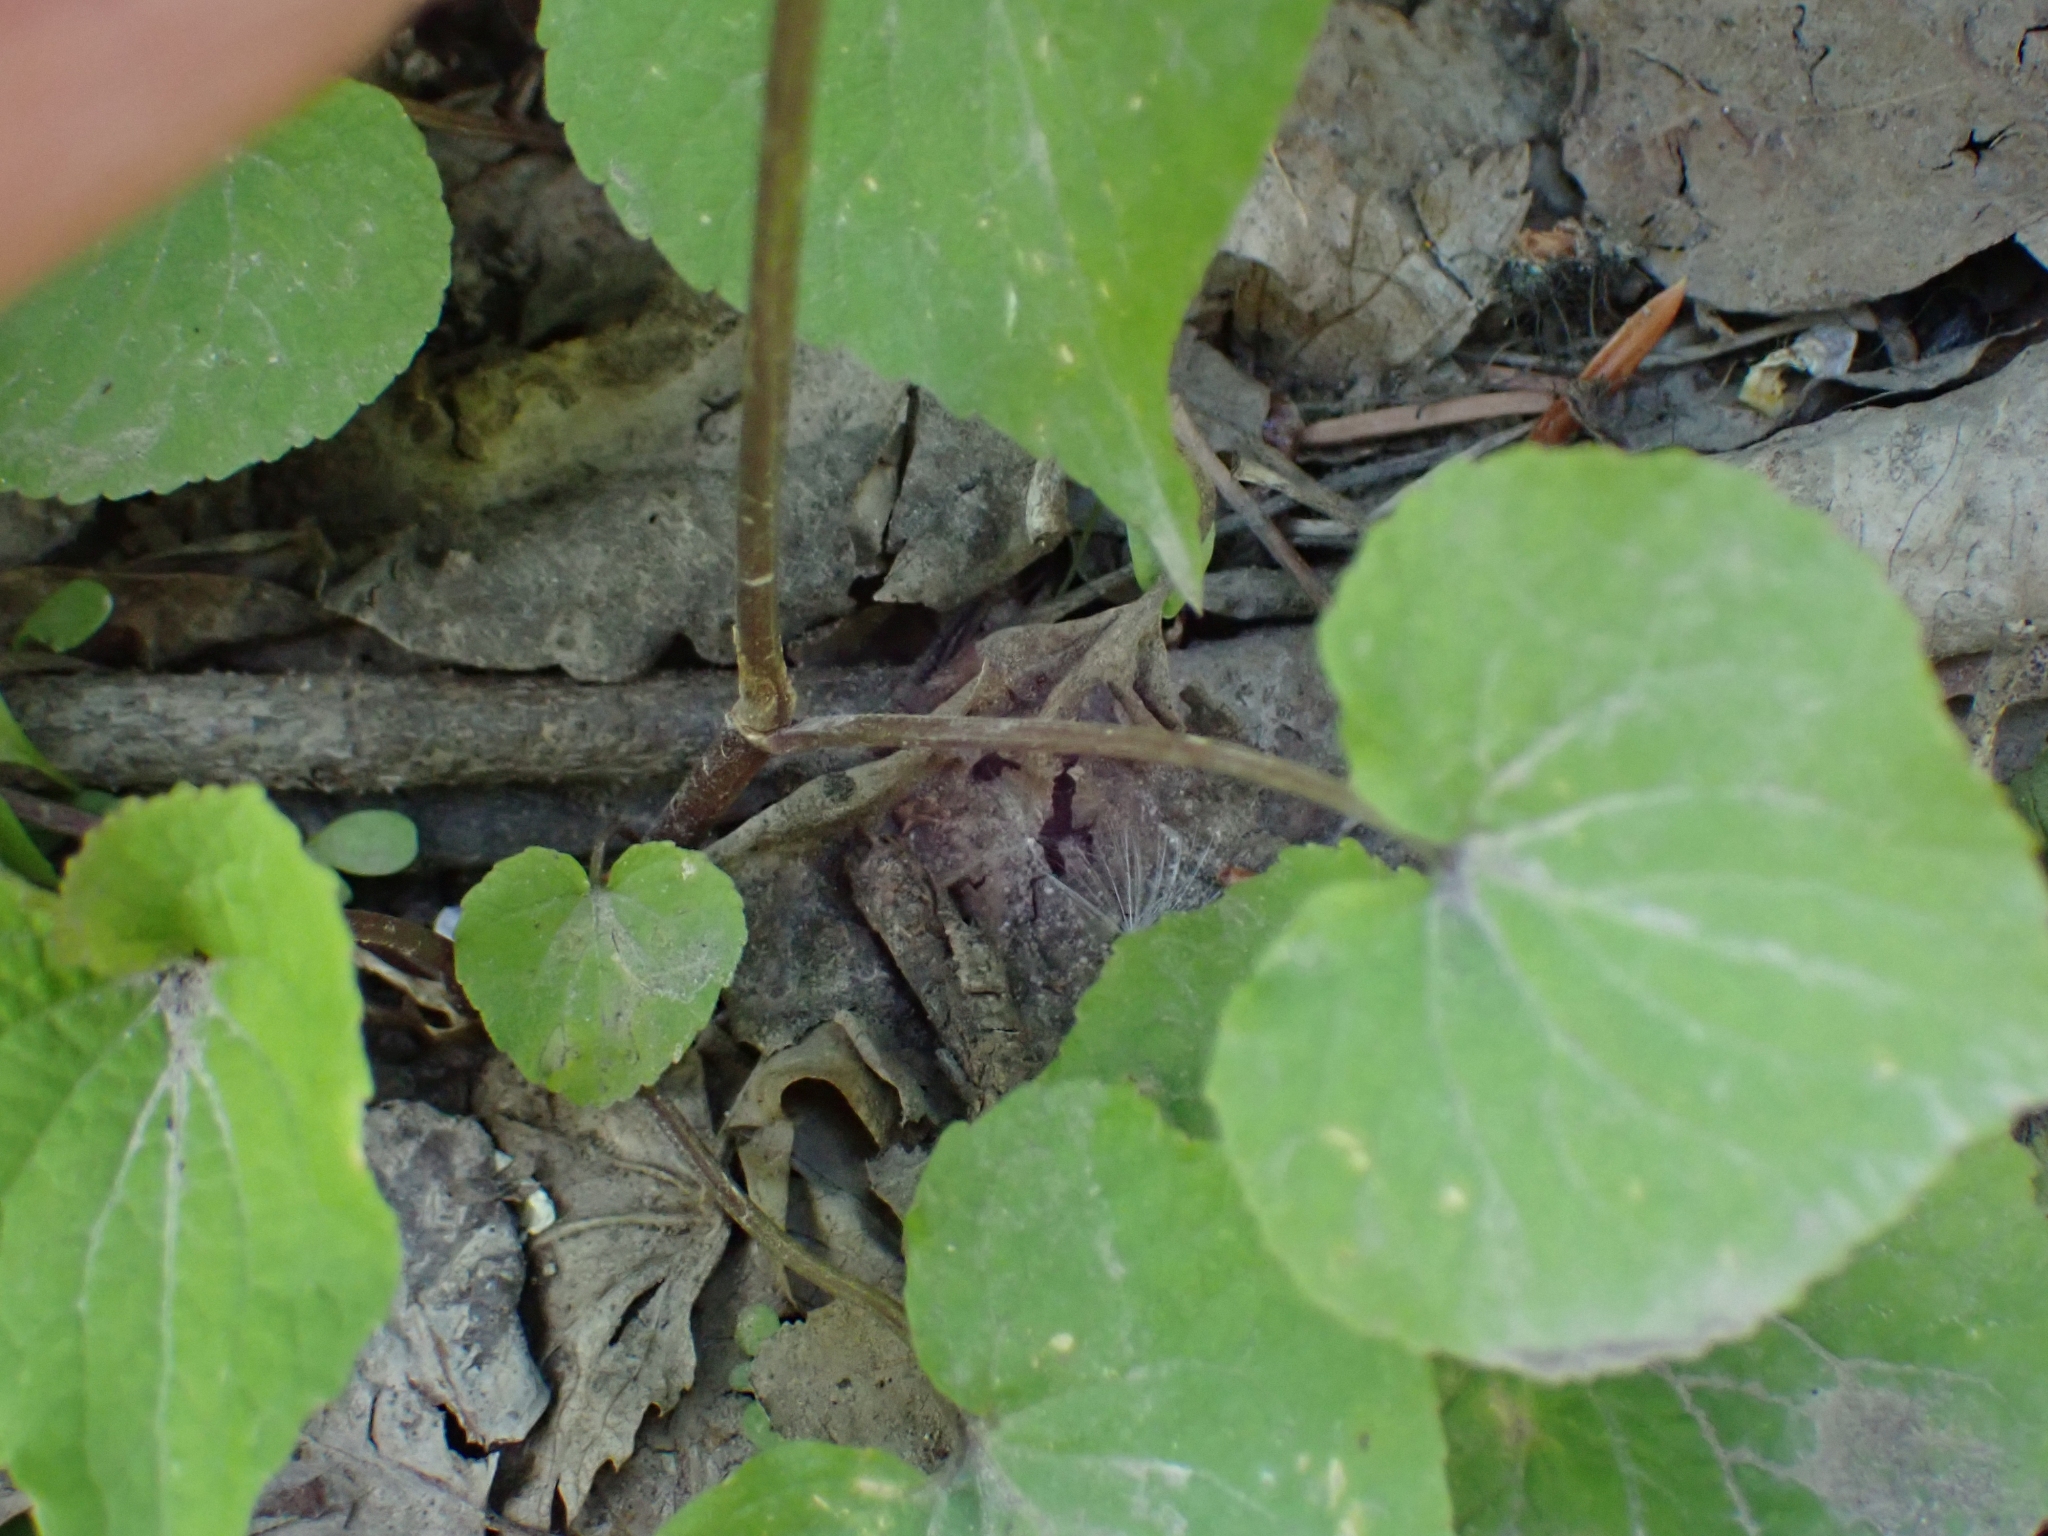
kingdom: Plantae
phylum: Tracheophyta
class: Magnoliopsida
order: Malpighiales
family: Violaceae
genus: Viola
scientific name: Viola canadensis
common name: Canada violet
